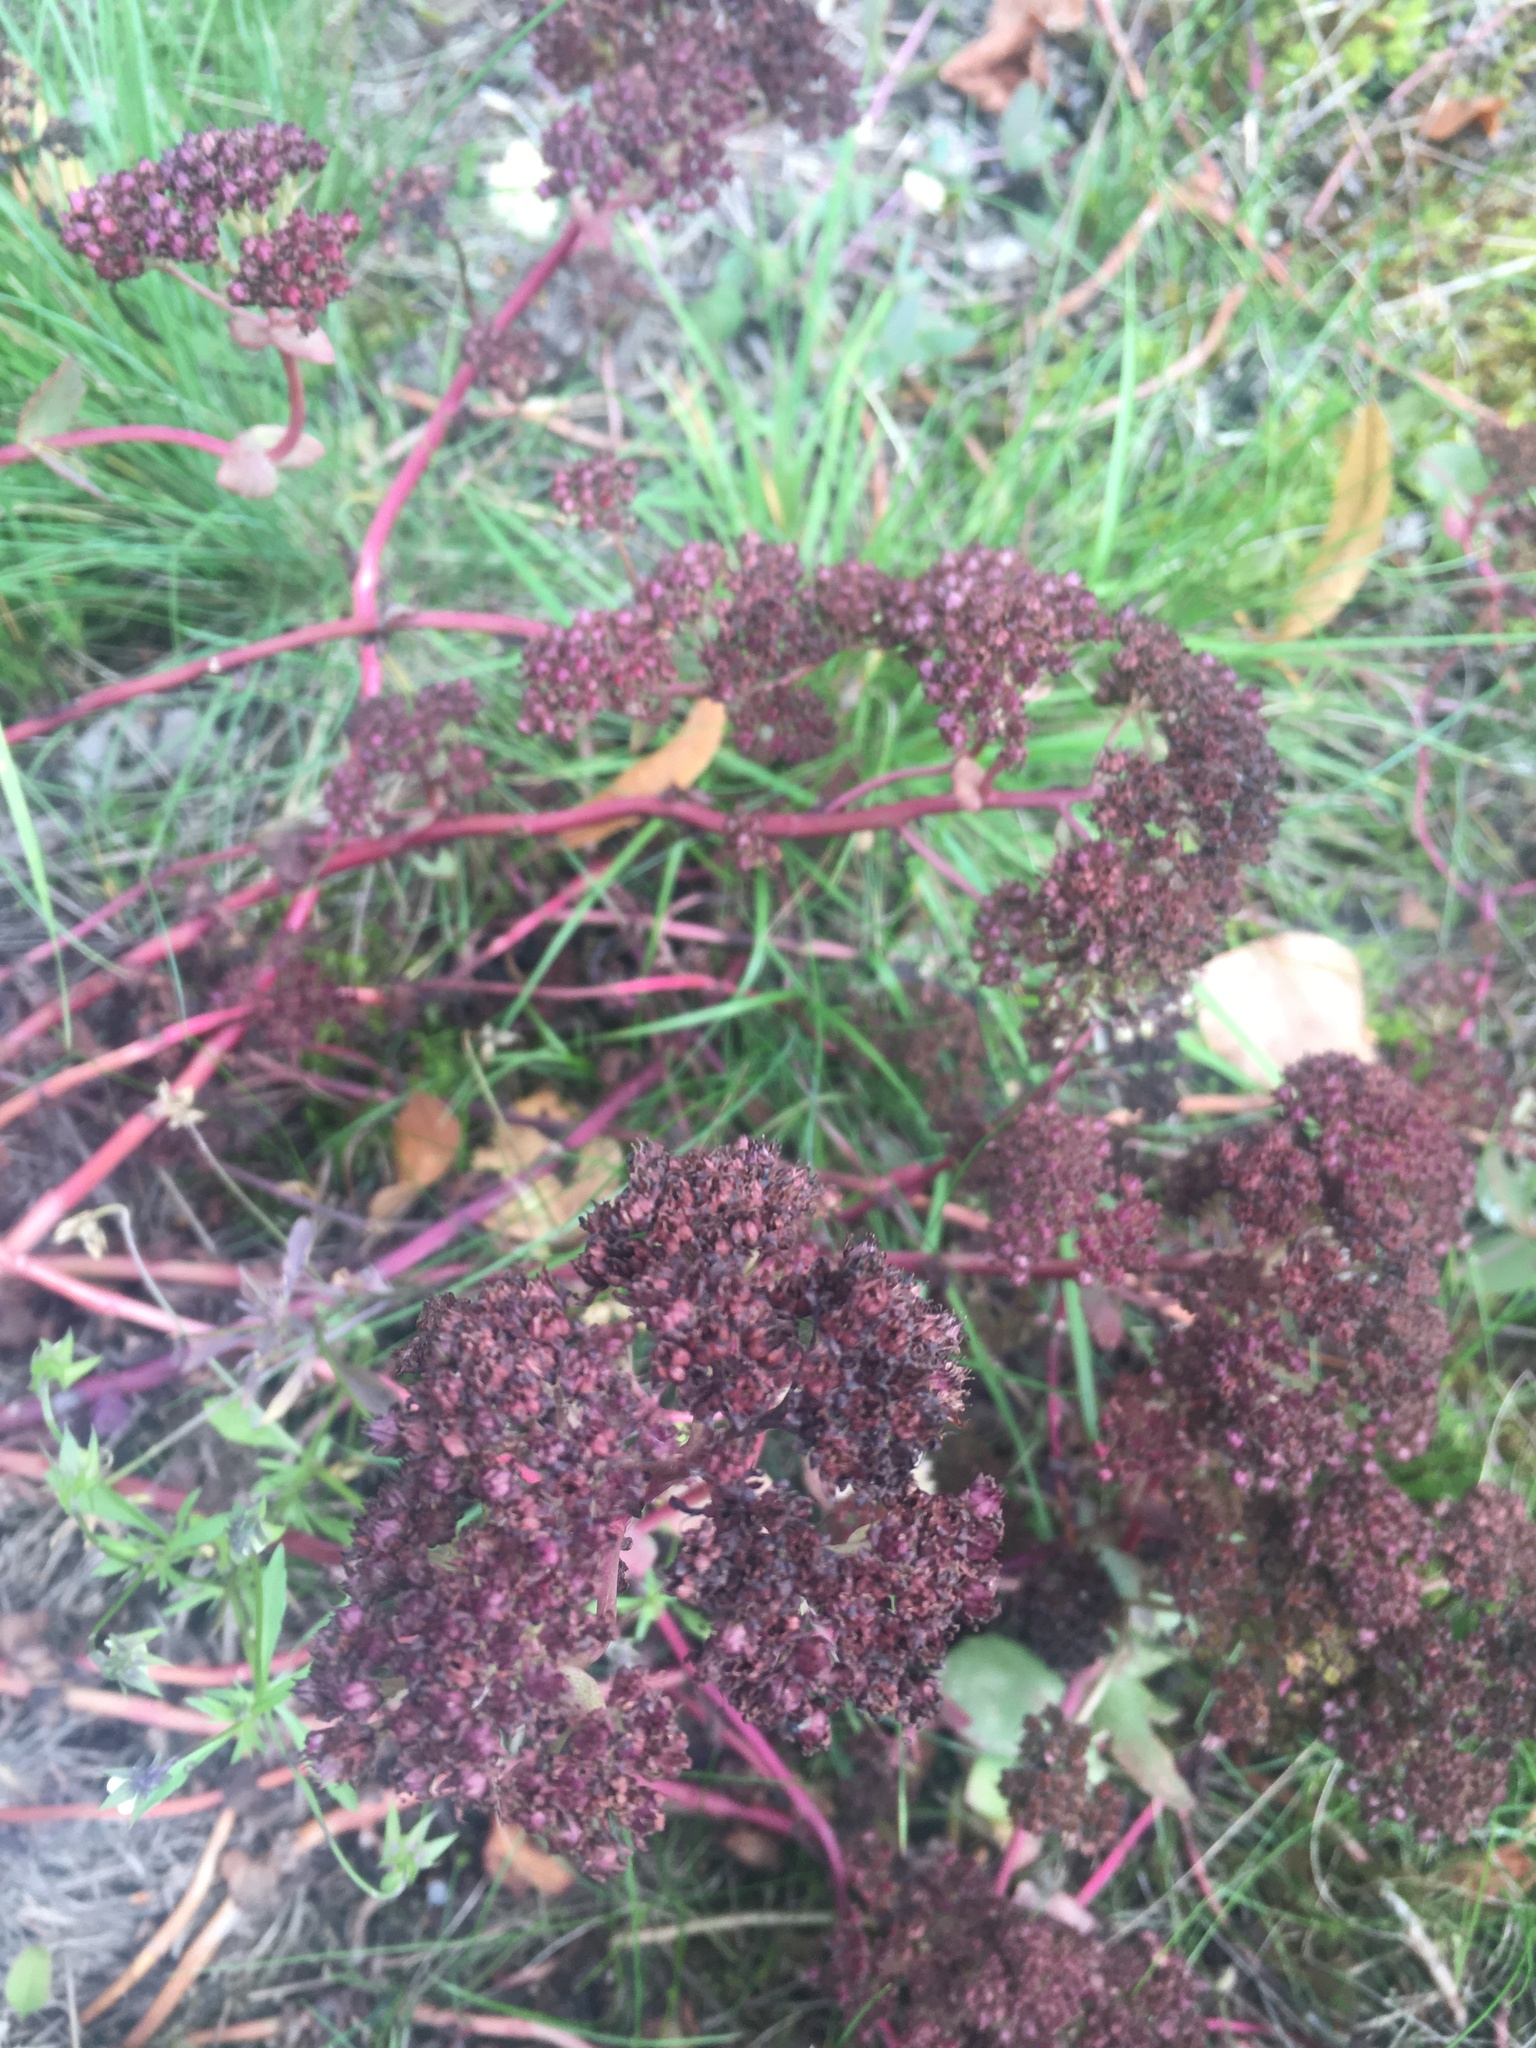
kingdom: Plantae
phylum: Tracheophyta
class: Magnoliopsida
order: Saxifragales
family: Crassulaceae
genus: Hylotelephium
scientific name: Hylotelephium maximum
